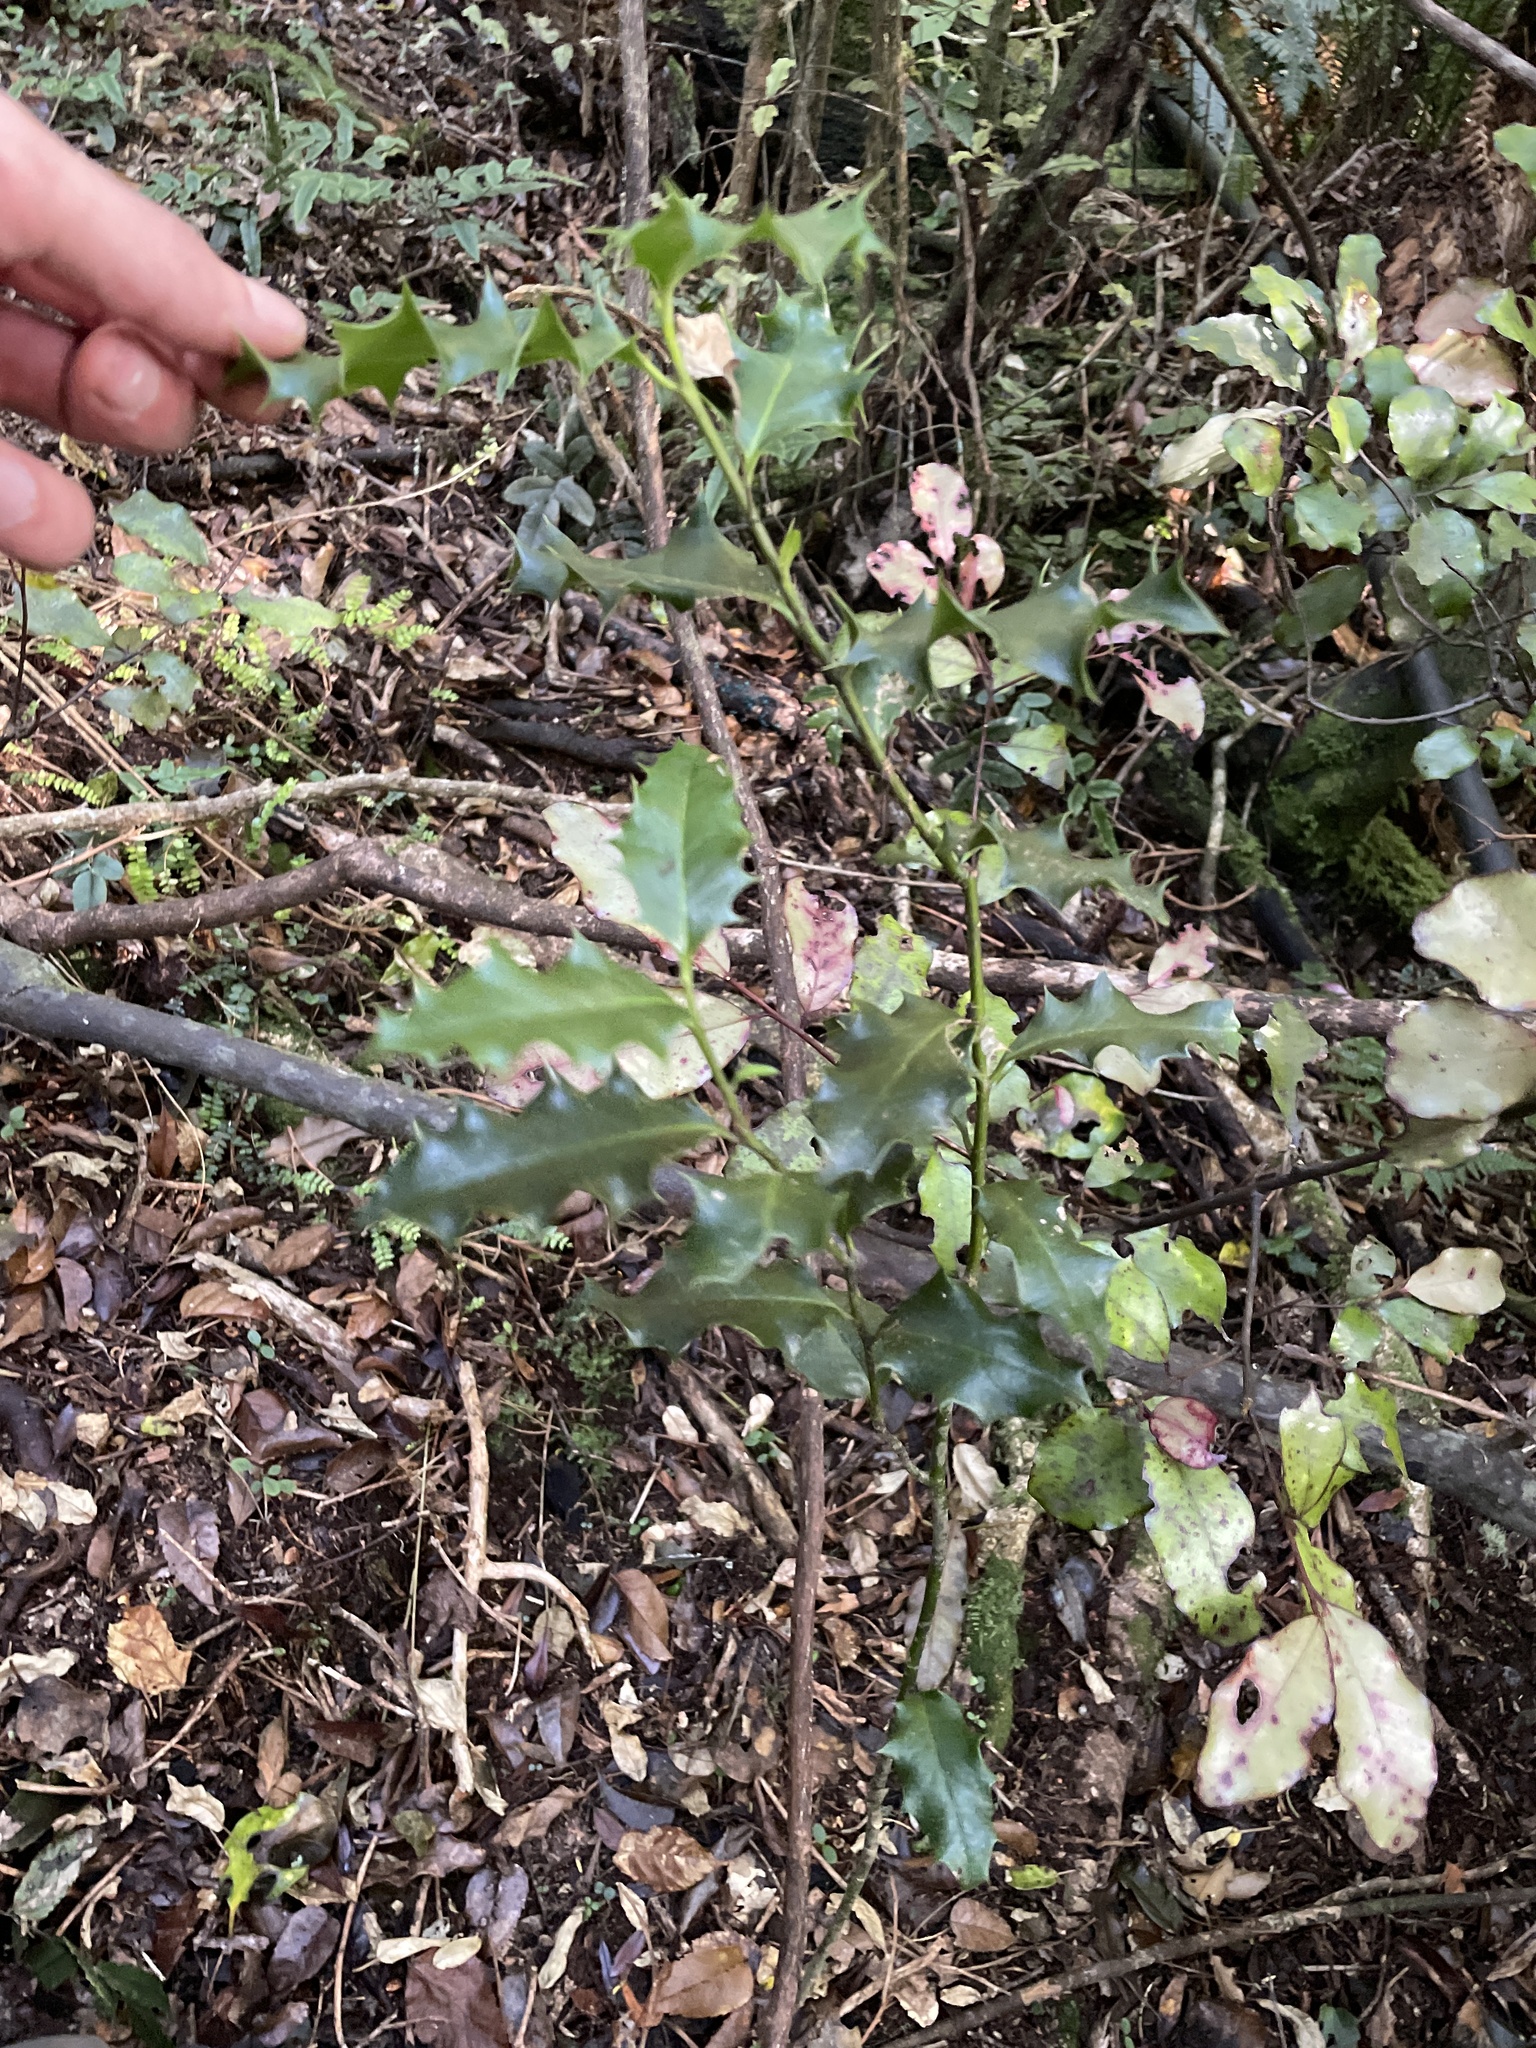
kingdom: Plantae
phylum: Tracheophyta
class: Magnoliopsida
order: Aquifoliales
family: Aquifoliaceae
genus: Ilex
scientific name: Ilex aquifolium
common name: English holly
